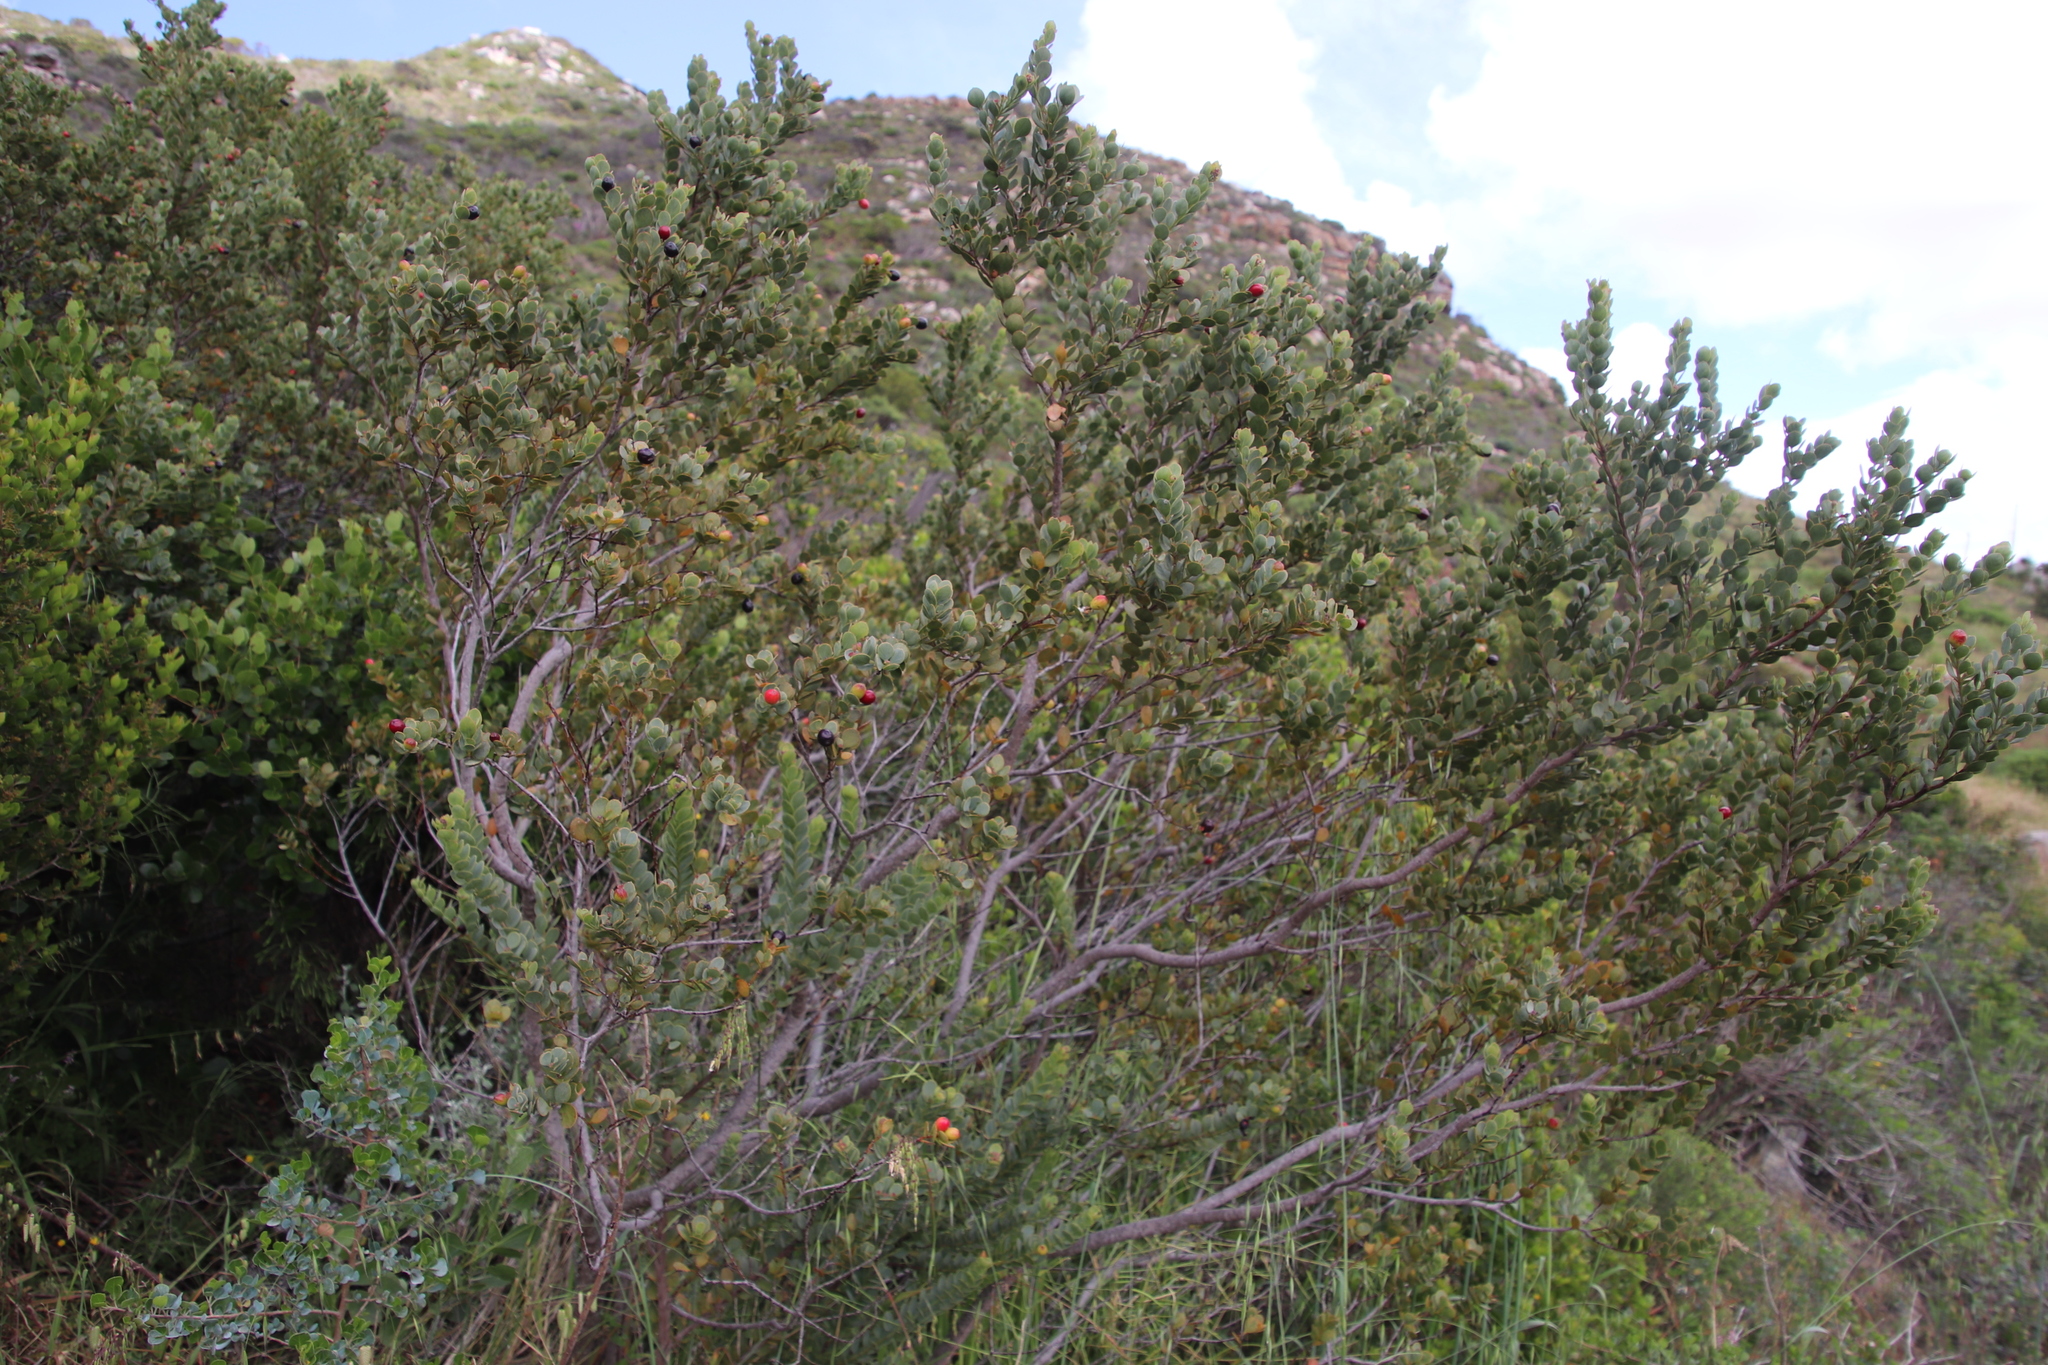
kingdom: Plantae
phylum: Tracheophyta
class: Magnoliopsida
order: Santalales
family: Santalaceae
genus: Osyris
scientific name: Osyris compressa
